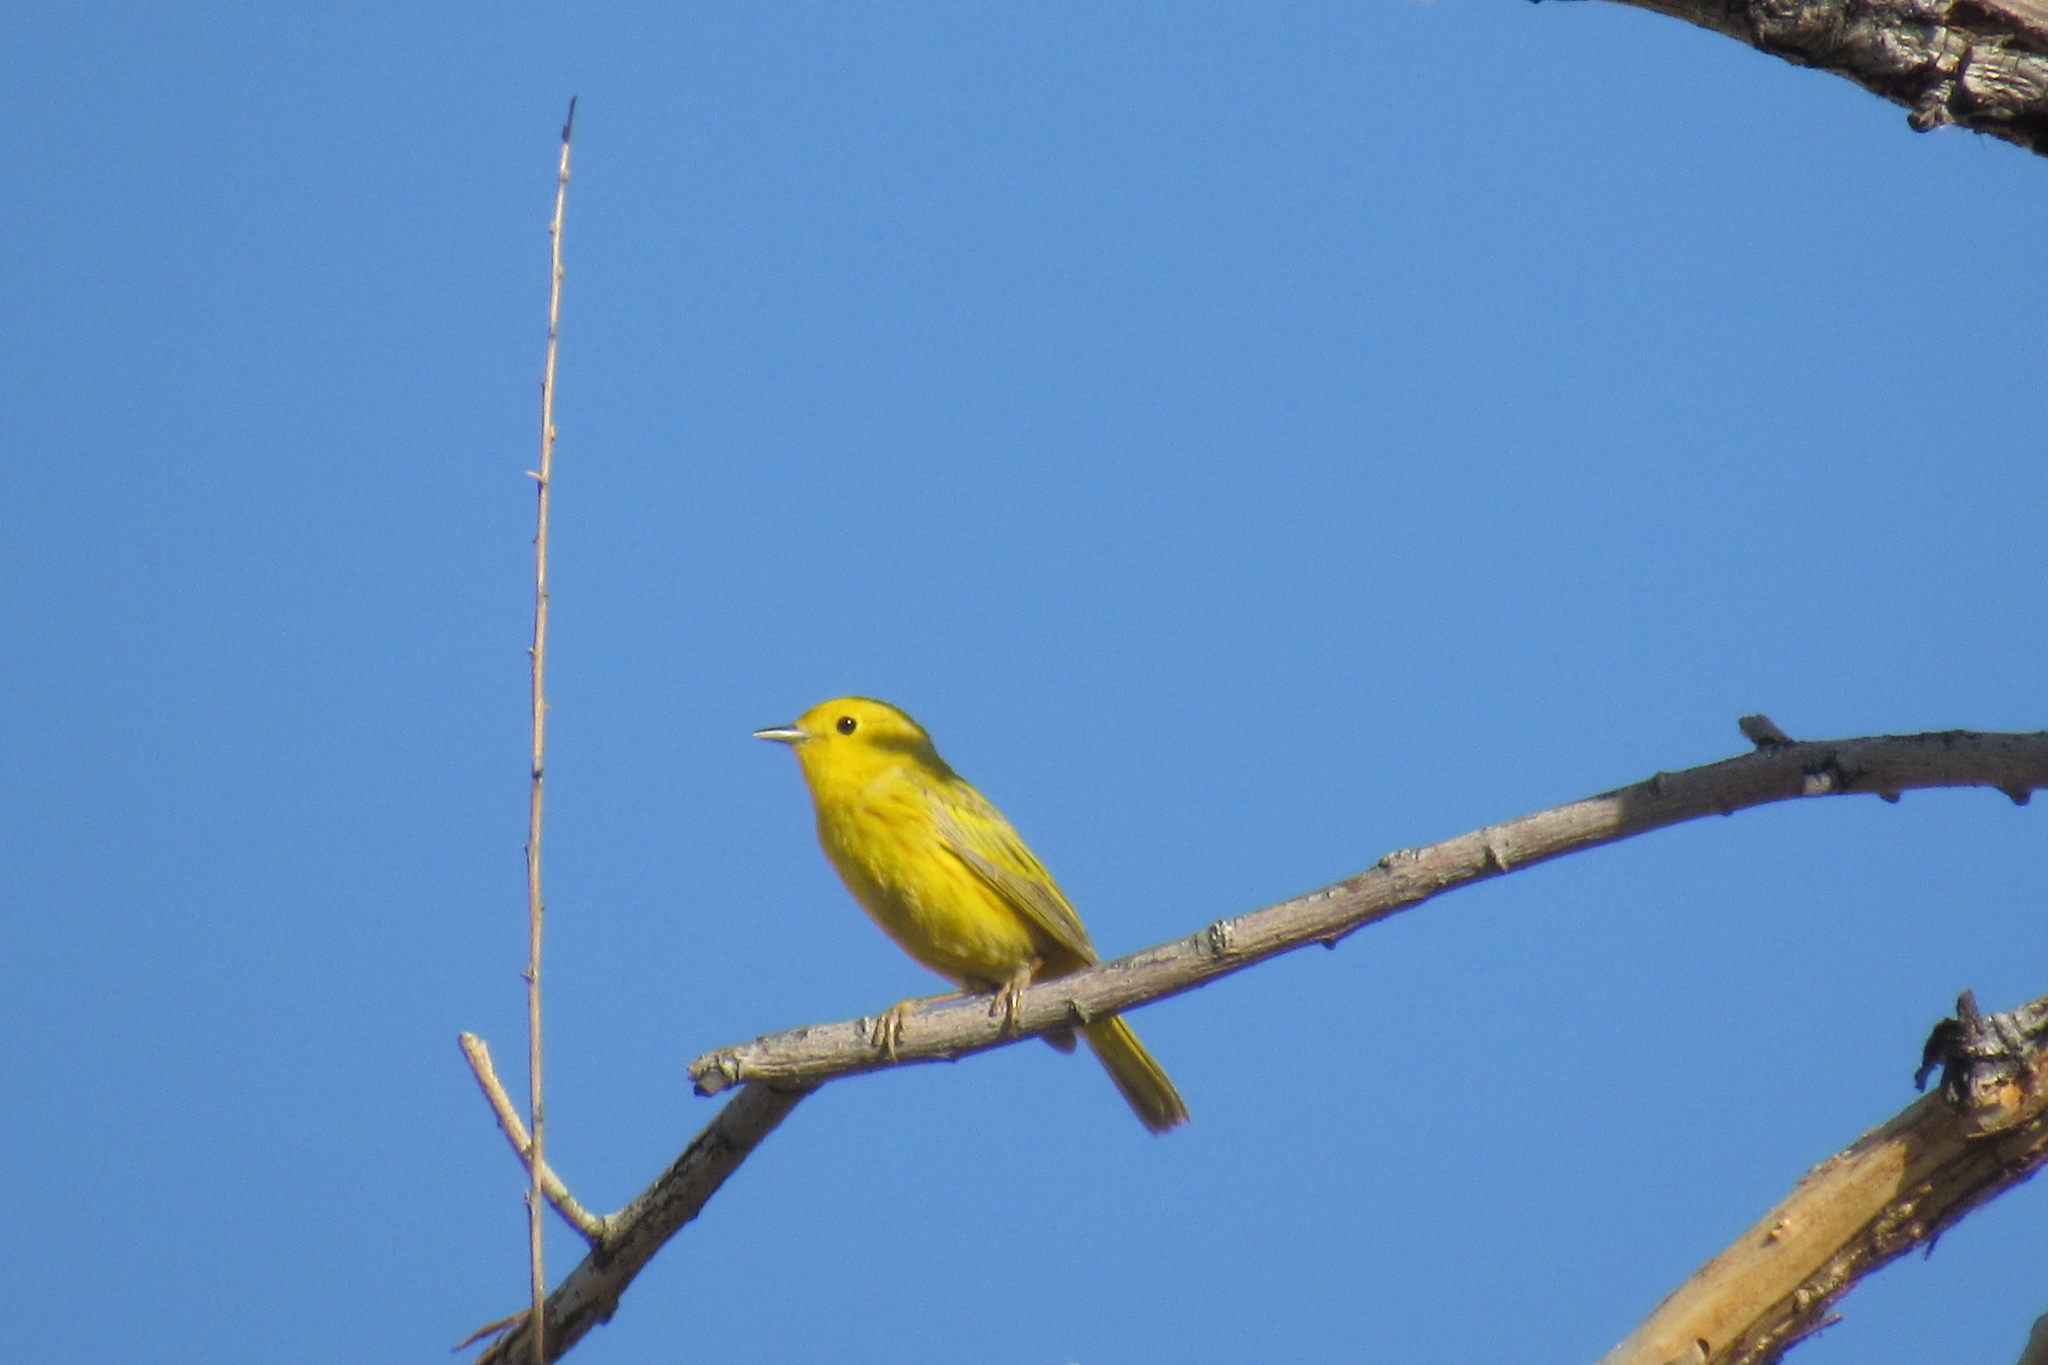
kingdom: Animalia
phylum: Chordata
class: Aves
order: Passeriformes
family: Parulidae
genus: Setophaga
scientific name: Setophaga petechia
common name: Yellow warbler
